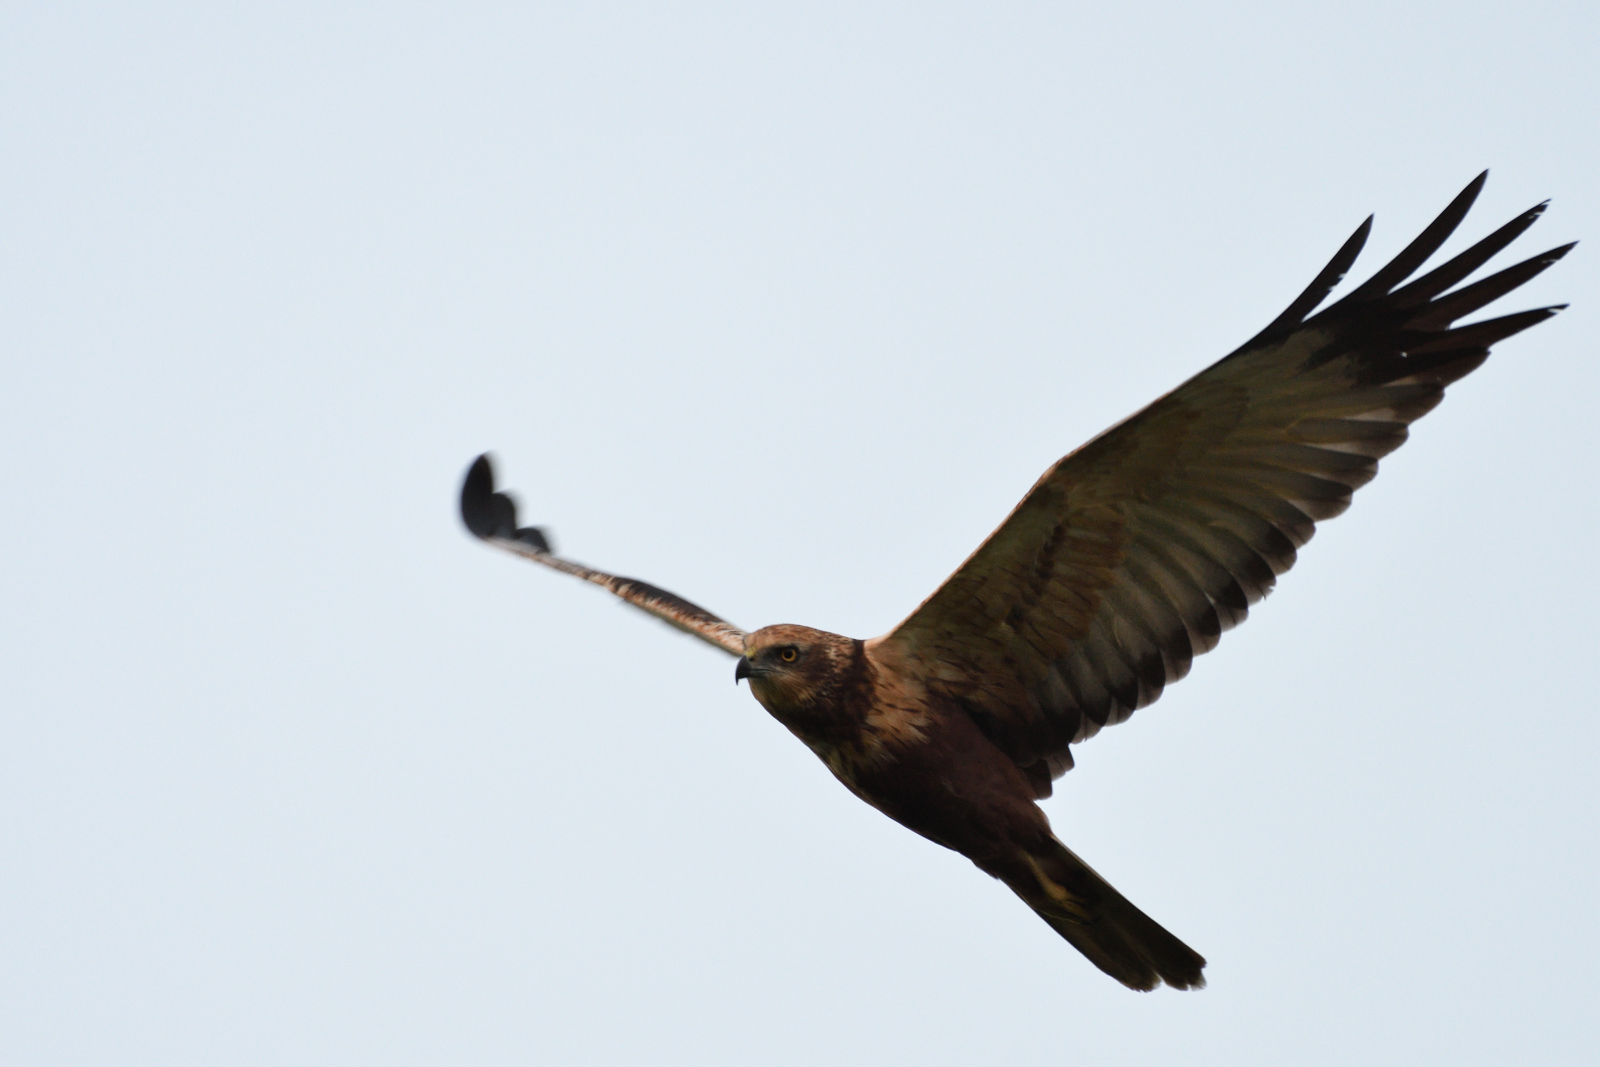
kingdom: Animalia
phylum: Chordata
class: Aves
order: Accipitriformes
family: Accipitridae
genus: Circus
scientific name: Circus aeruginosus
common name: Western marsh harrier
